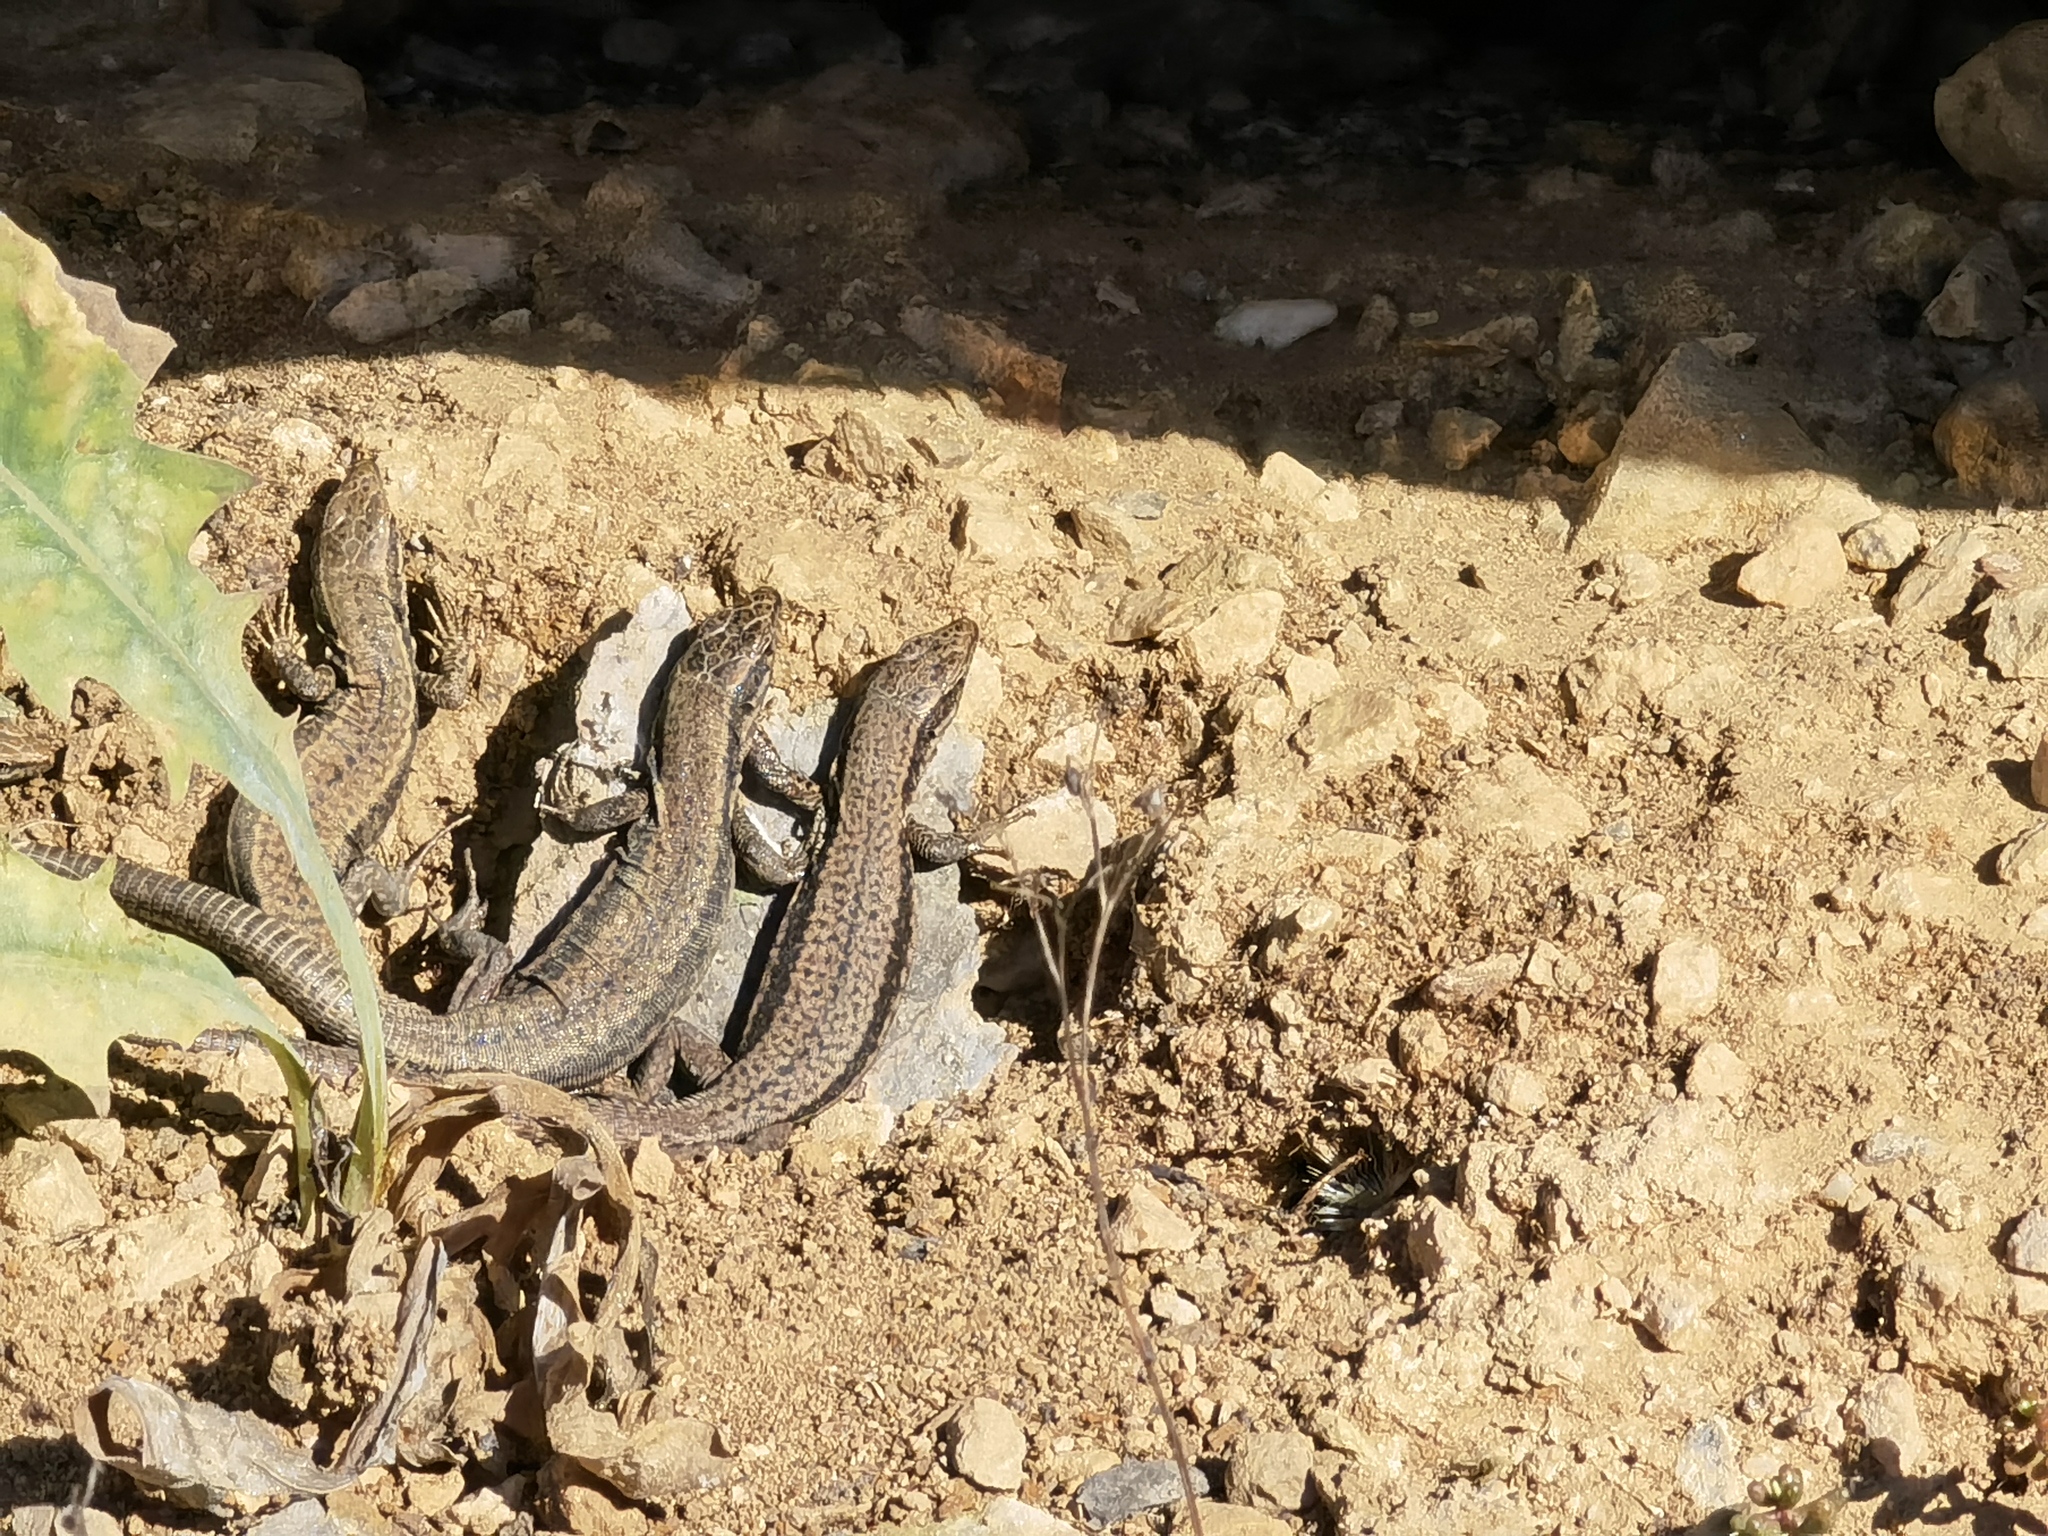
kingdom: Animalia
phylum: Chordata
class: Squamata
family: Lacertidae
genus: Podarcis
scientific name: Podarcis muralis
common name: Common wall lizard
